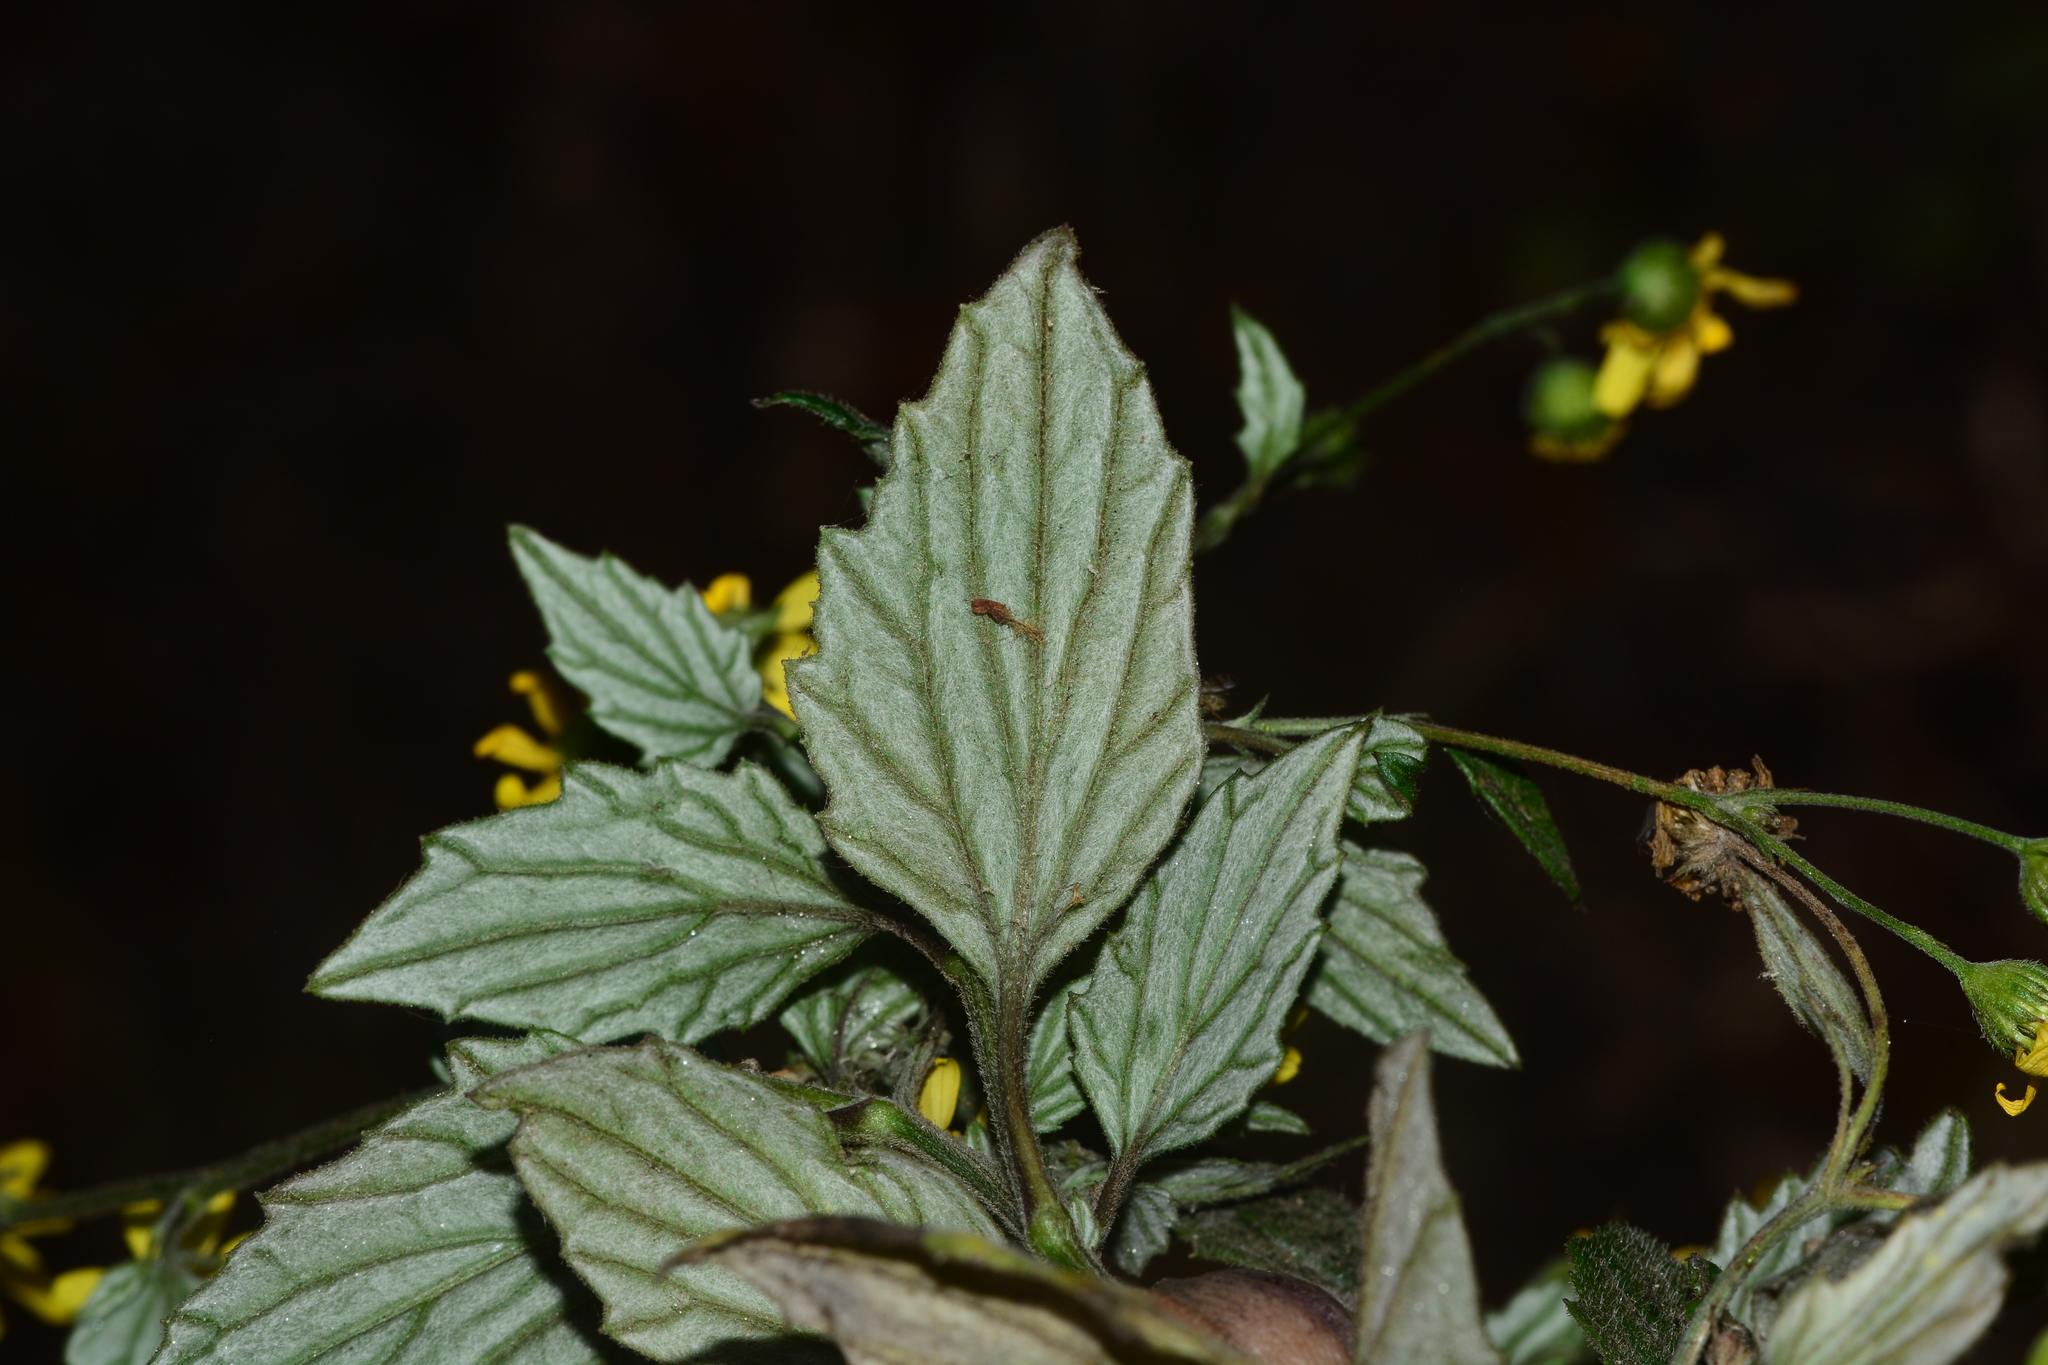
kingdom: Plantae
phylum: Tracheophyta
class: Magnoliopsida
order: Asterales
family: Asteraceae
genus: Senecio
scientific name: Senecio bombayensis
